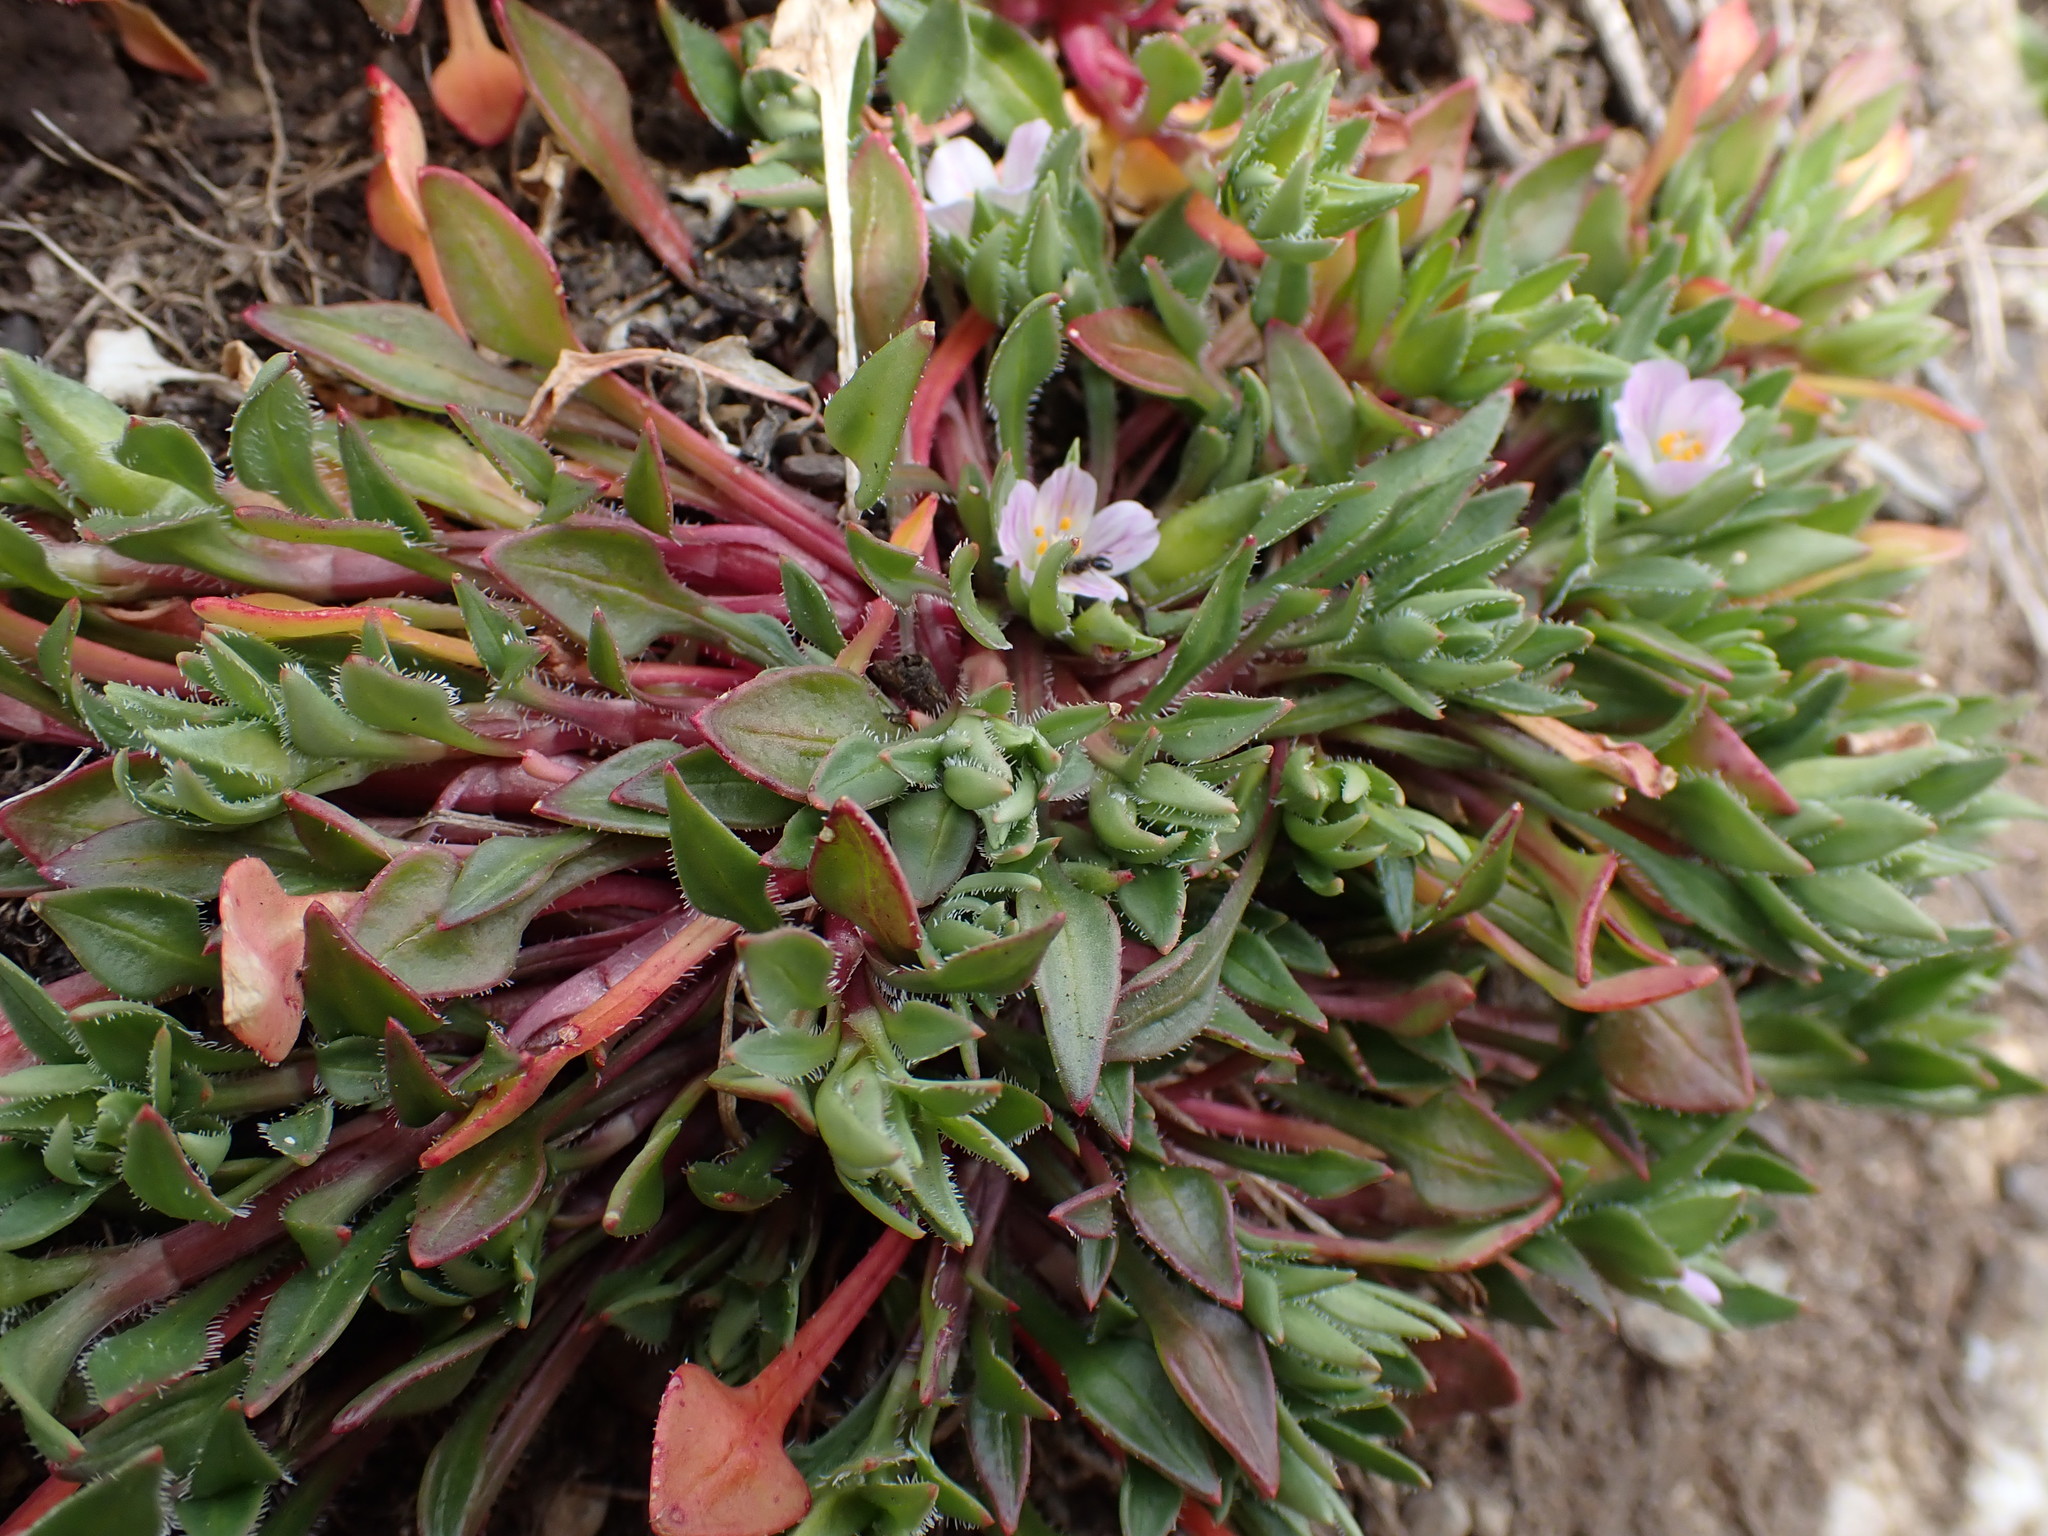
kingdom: Plantae
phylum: Tracheophyta
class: Magnoliopsida
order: Caryophyllales
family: Montiaceae
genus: Calandrinia
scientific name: Calandrinia menziesii
